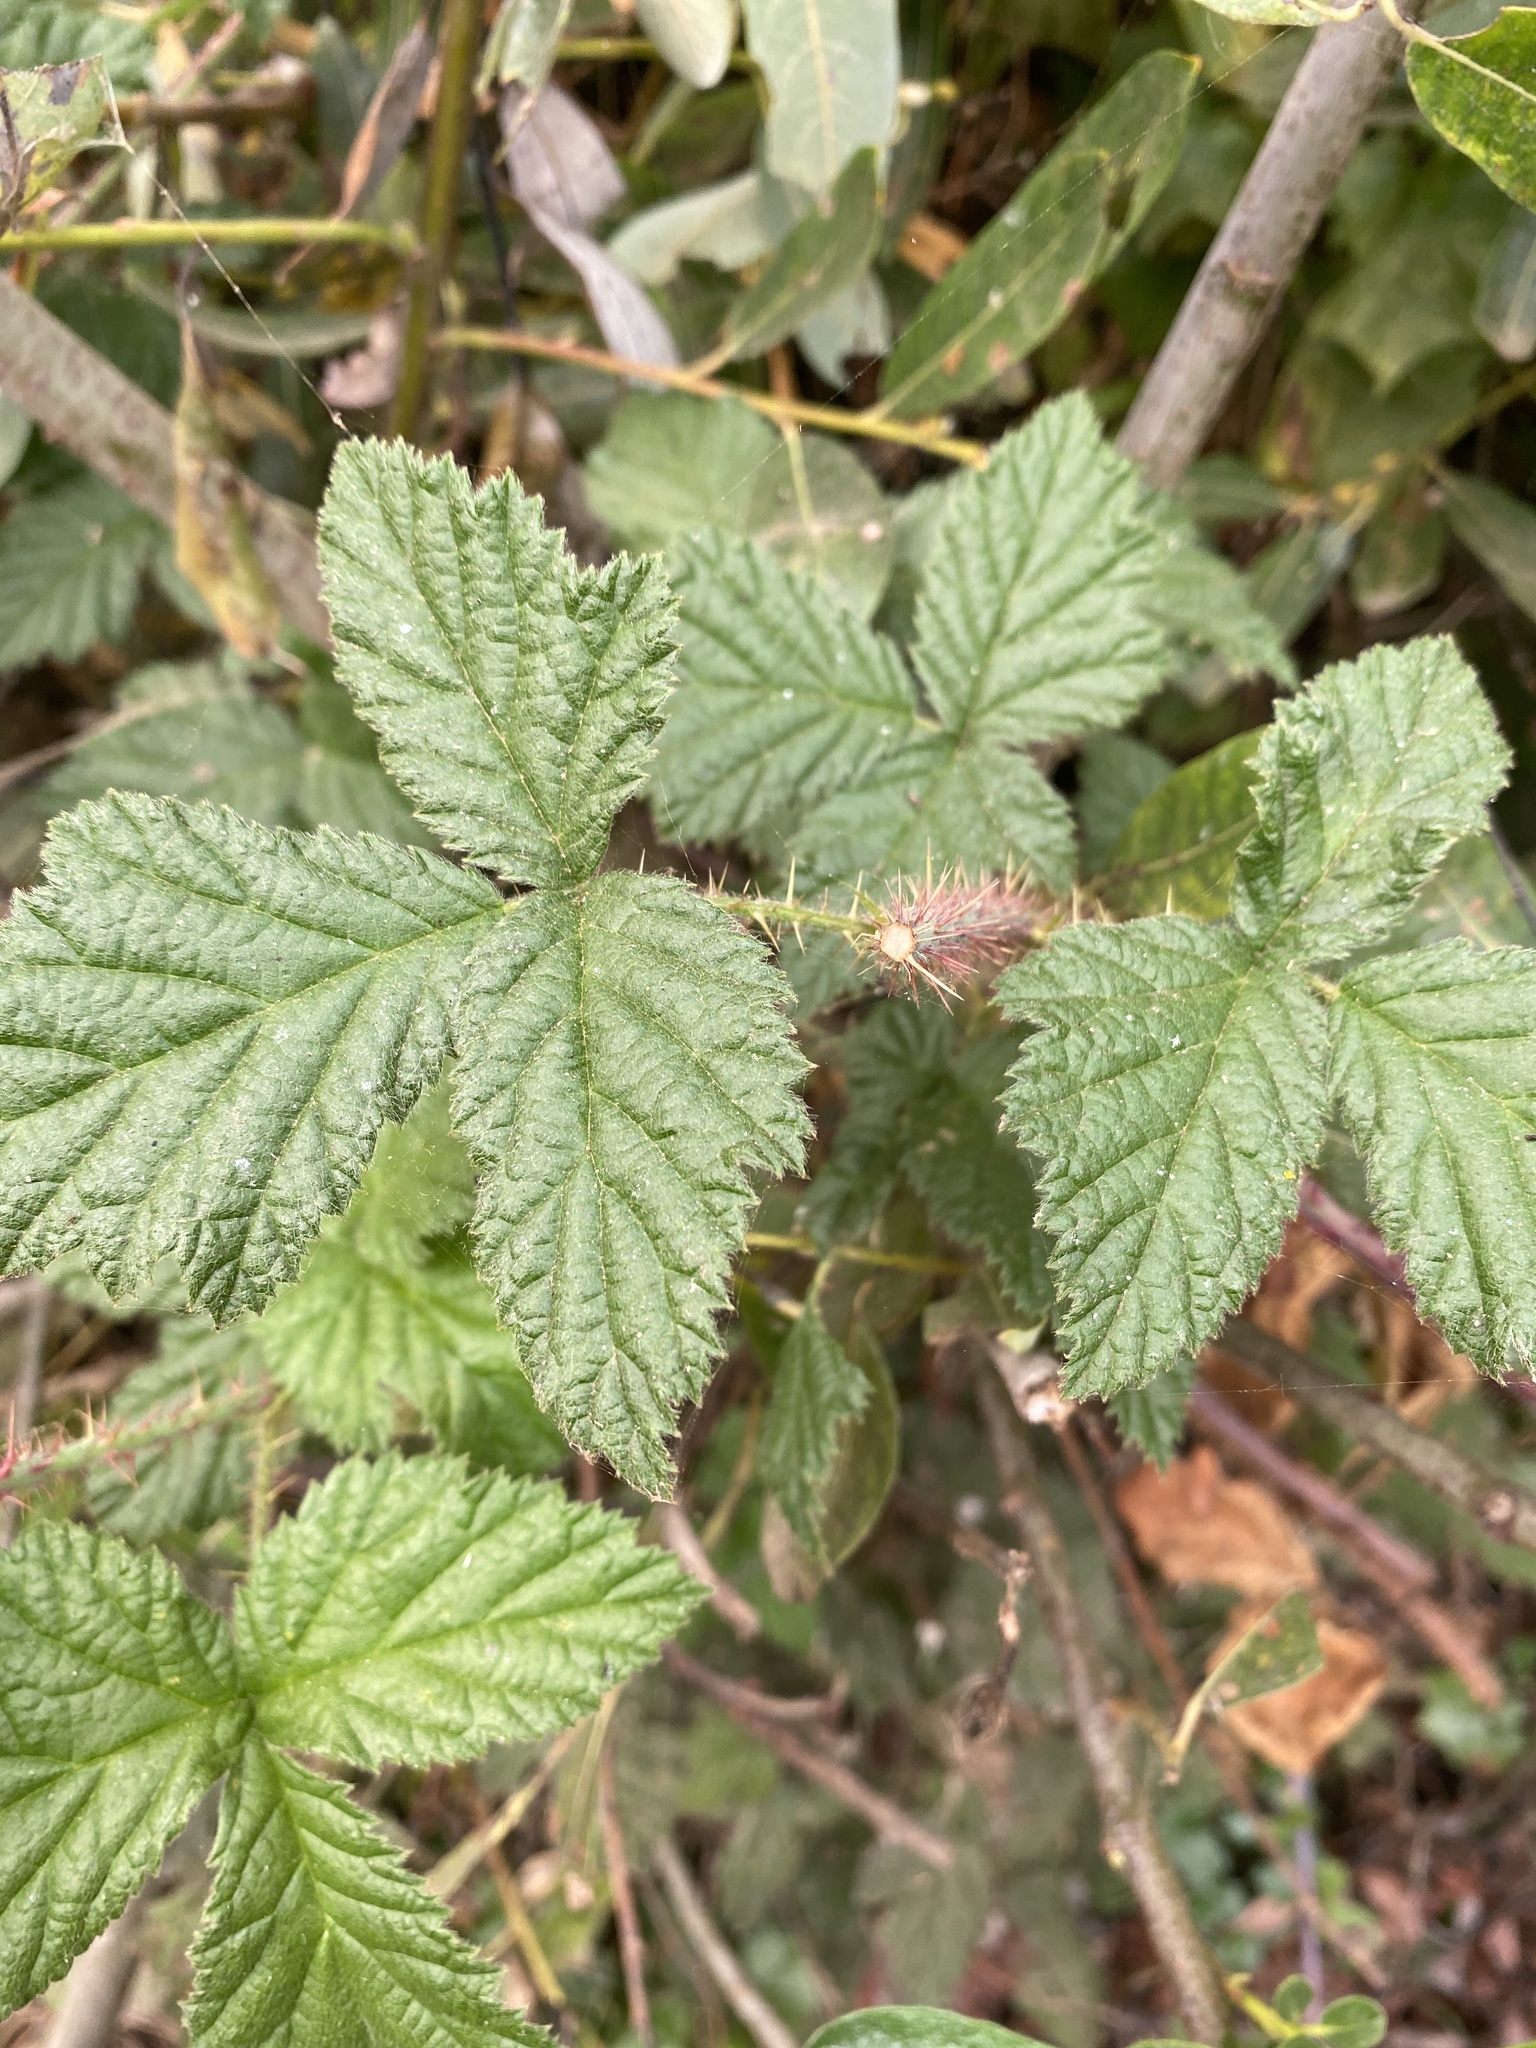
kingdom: Plantae
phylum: Tracheophyta
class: Magnoliopsida
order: Rosales
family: Rosaceae
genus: Rubus
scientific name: Rubus ursinus
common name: Pacific blackberry
